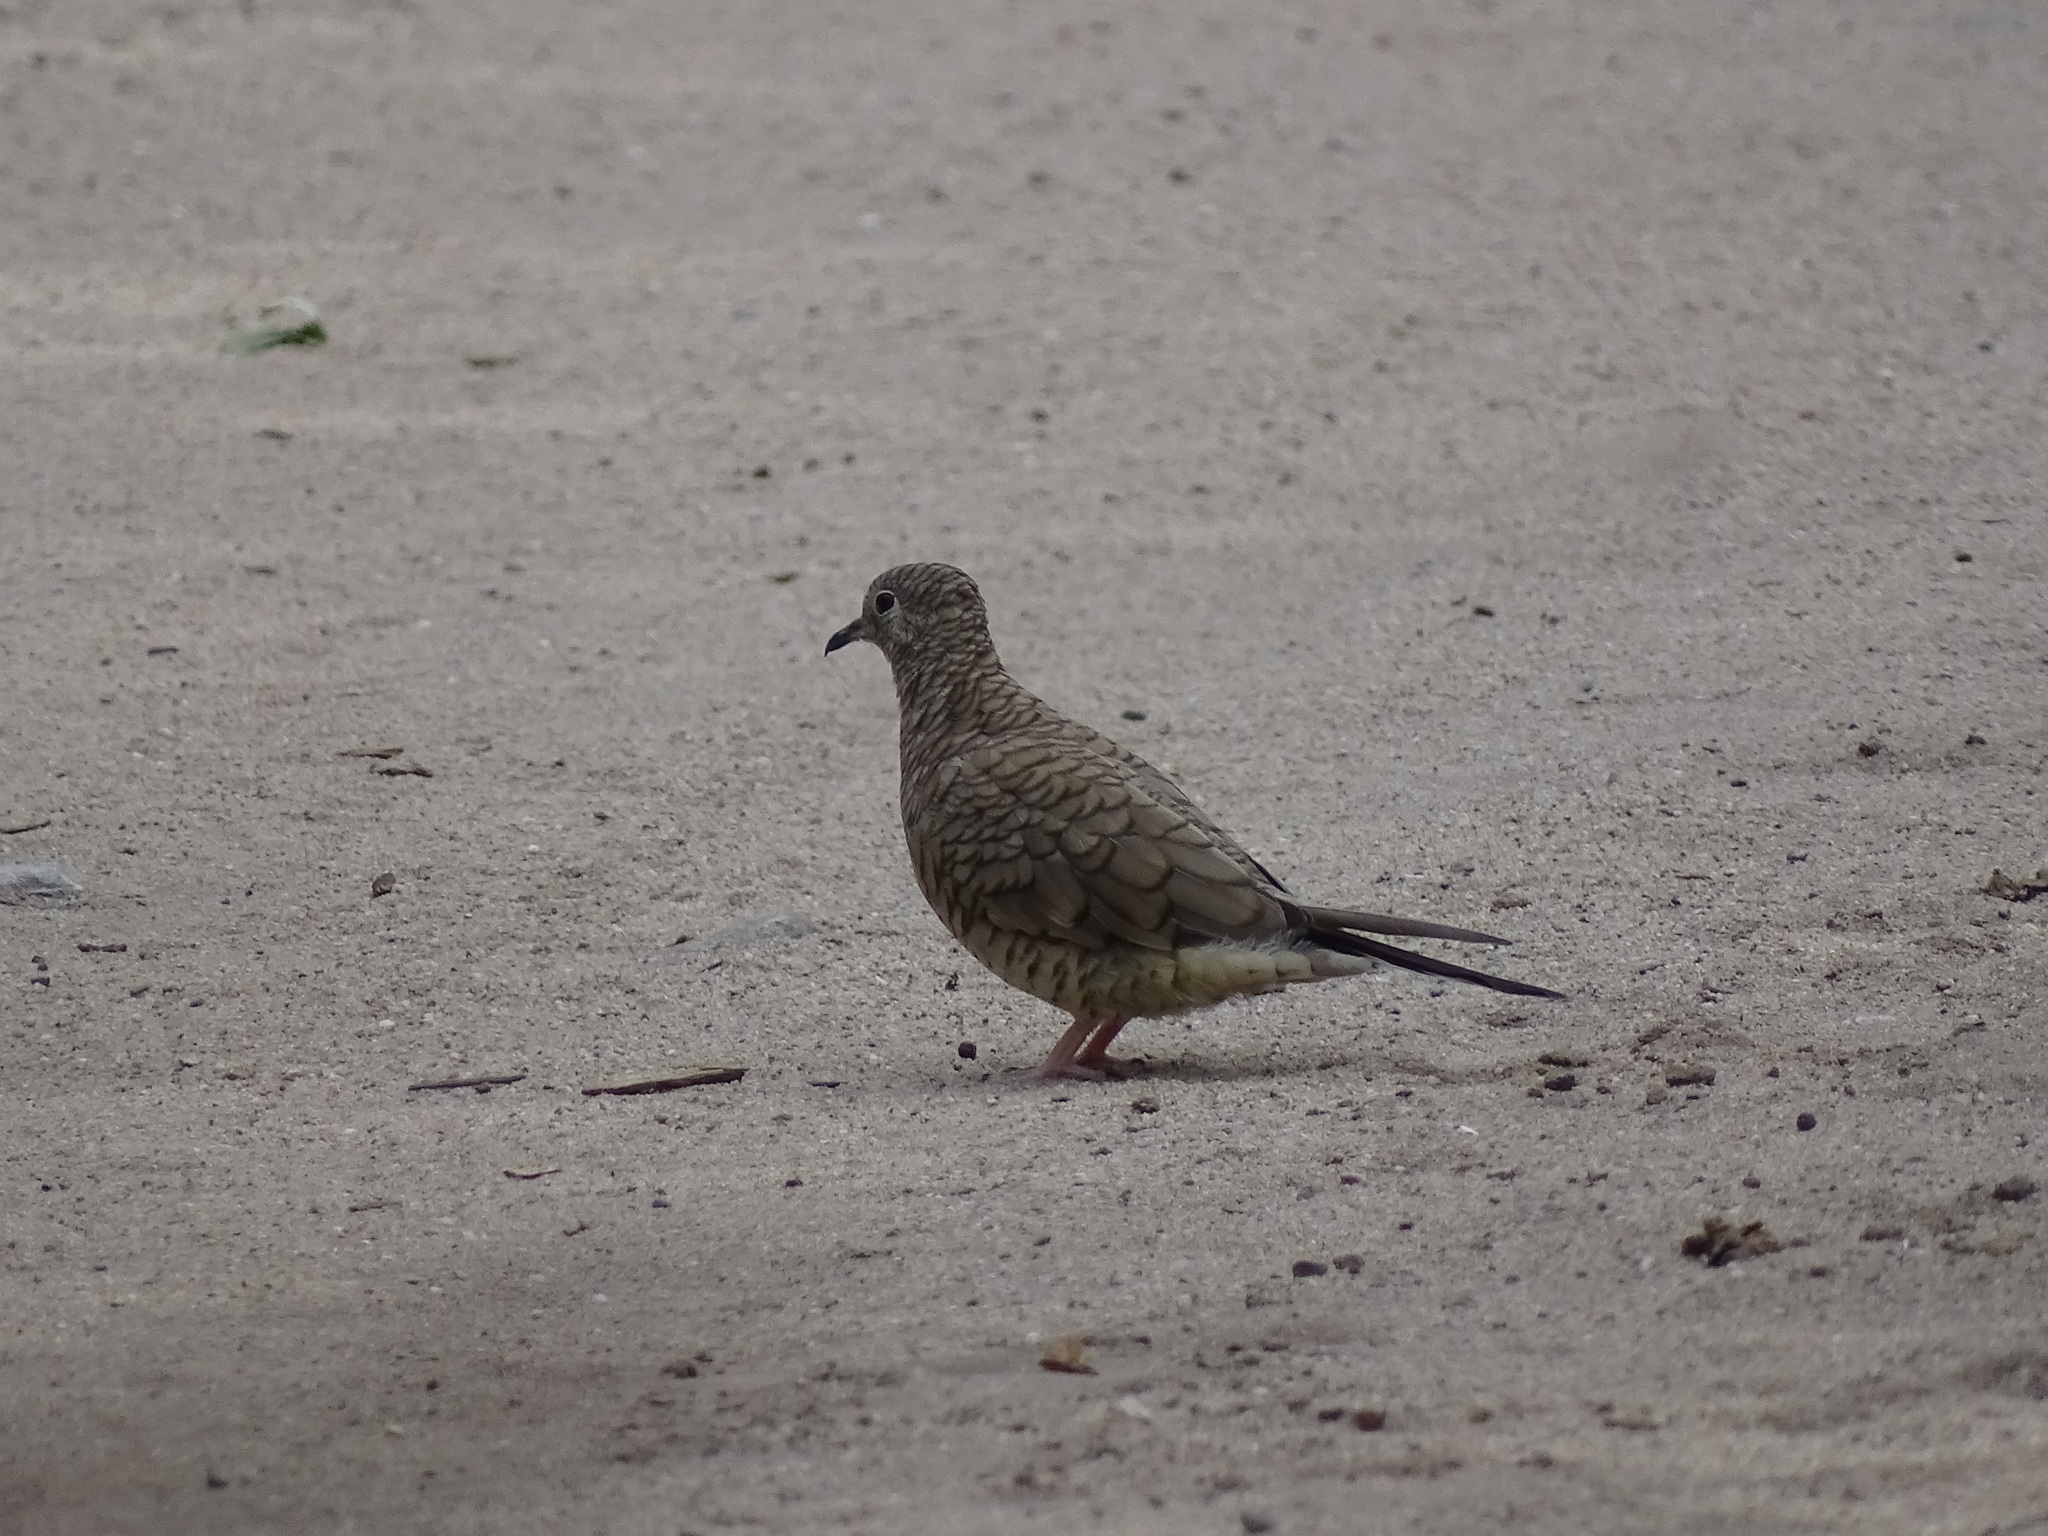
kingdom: Animalia
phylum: Chordata
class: Aves
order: Columbiformes
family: Columbidae
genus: Columbina
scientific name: Columbina inca
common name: Inca dove
